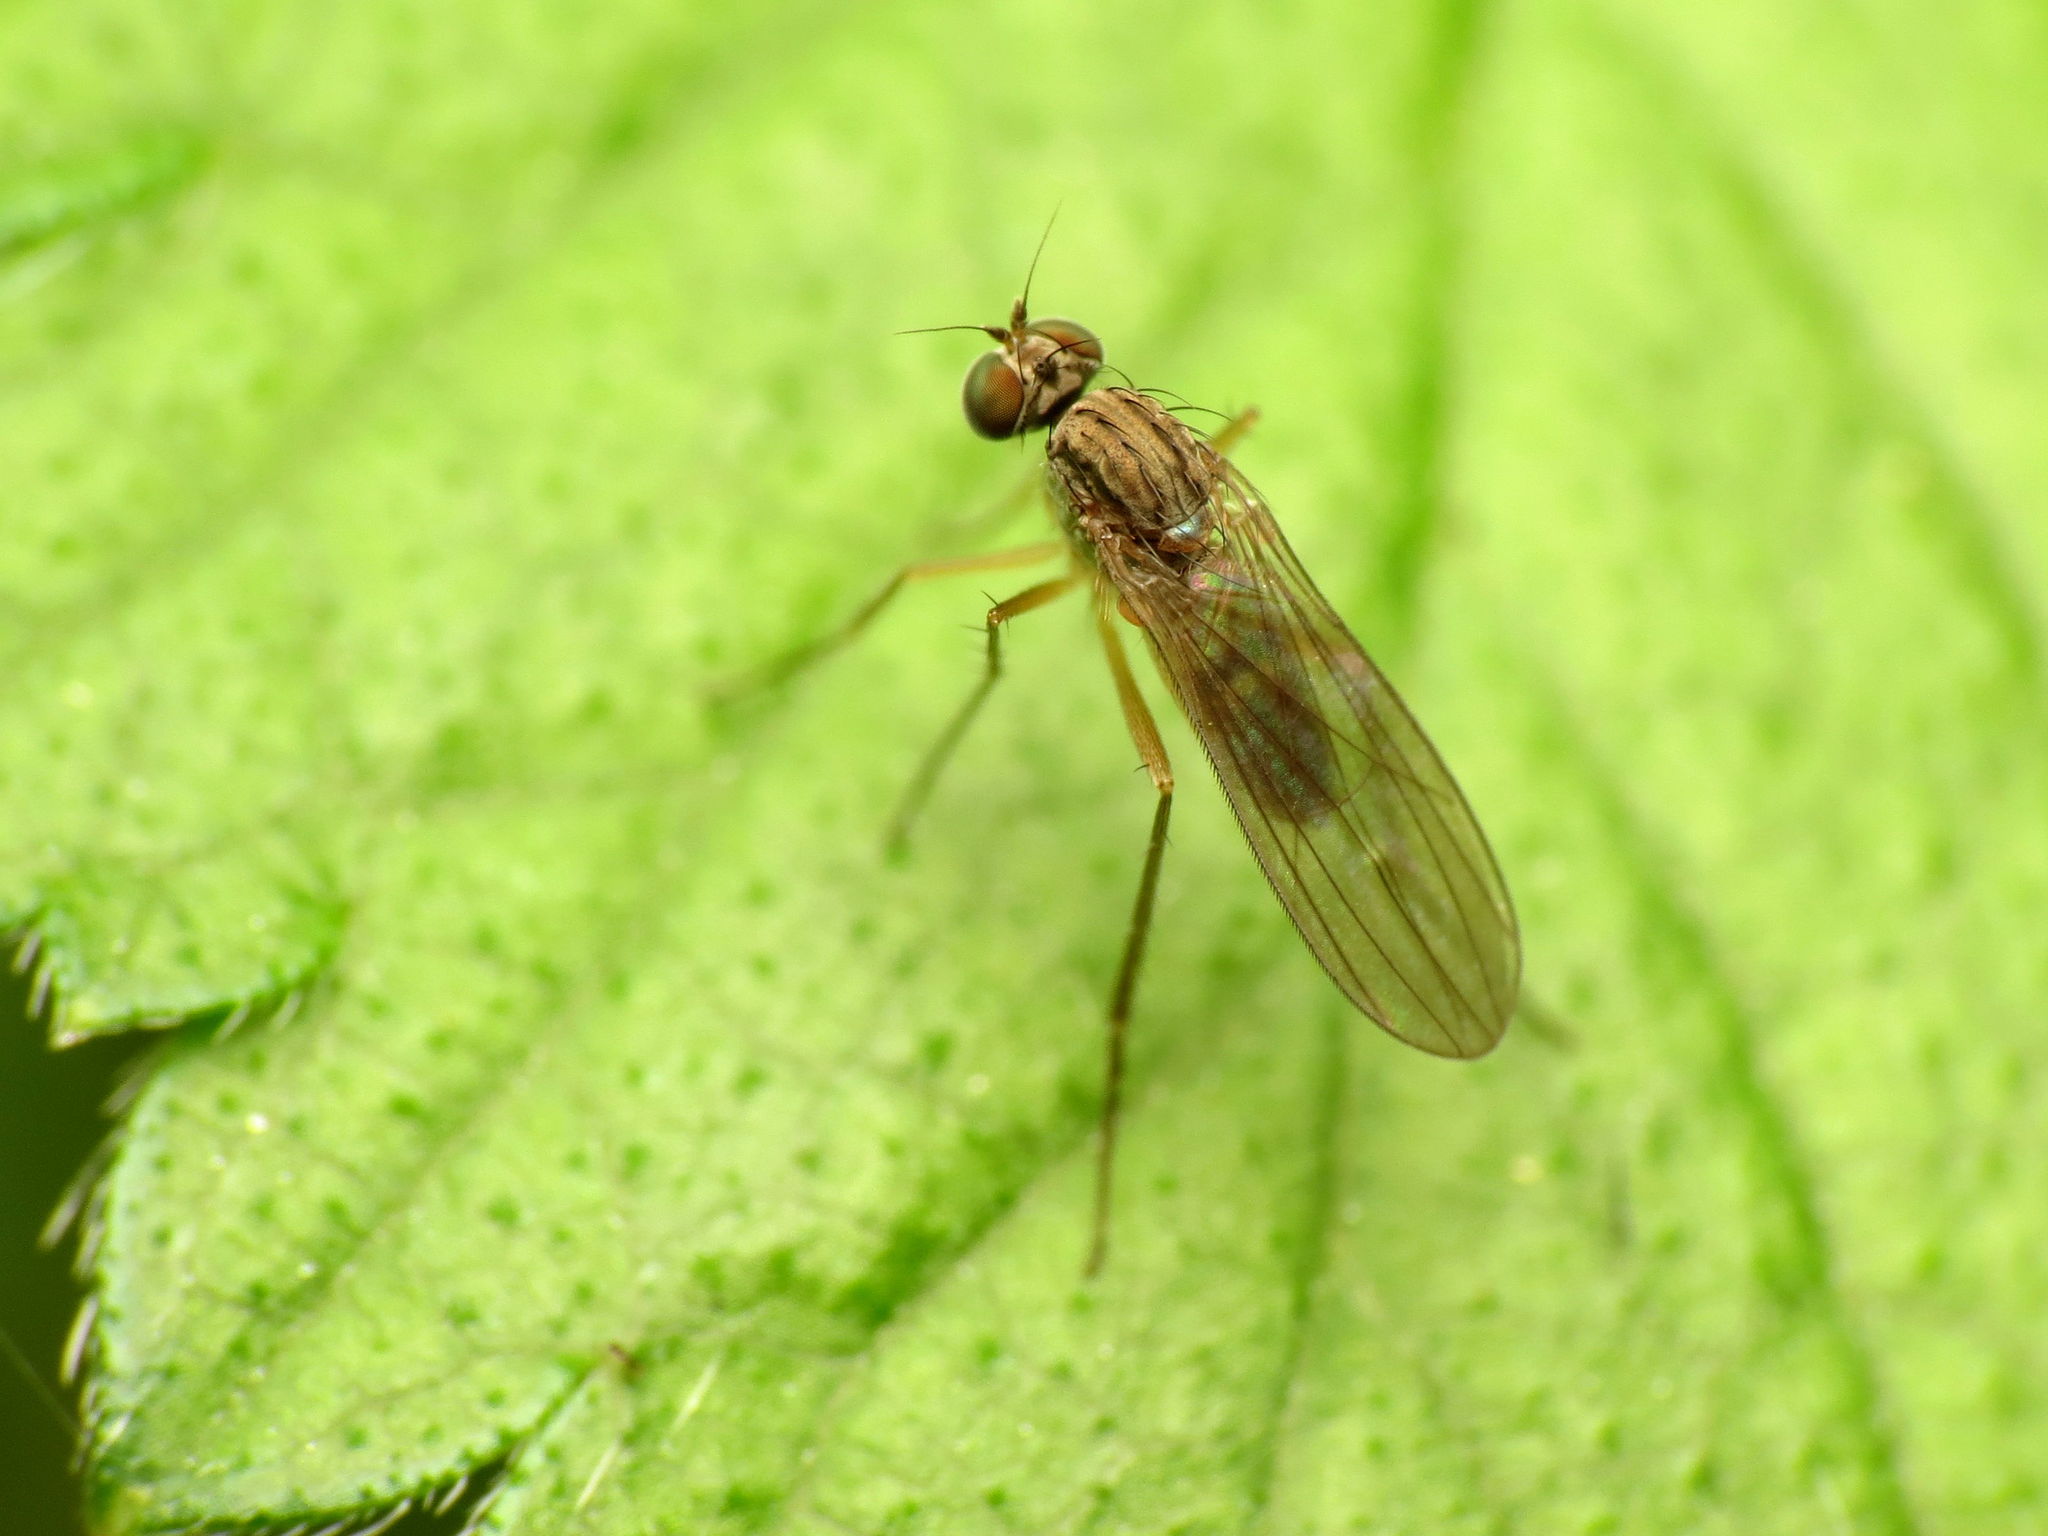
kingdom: Animalia
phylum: Arthropoda
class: Insecta
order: Diptera
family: Dolichopodidae
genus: Sympycnus
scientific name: Sympycnus lineatus
